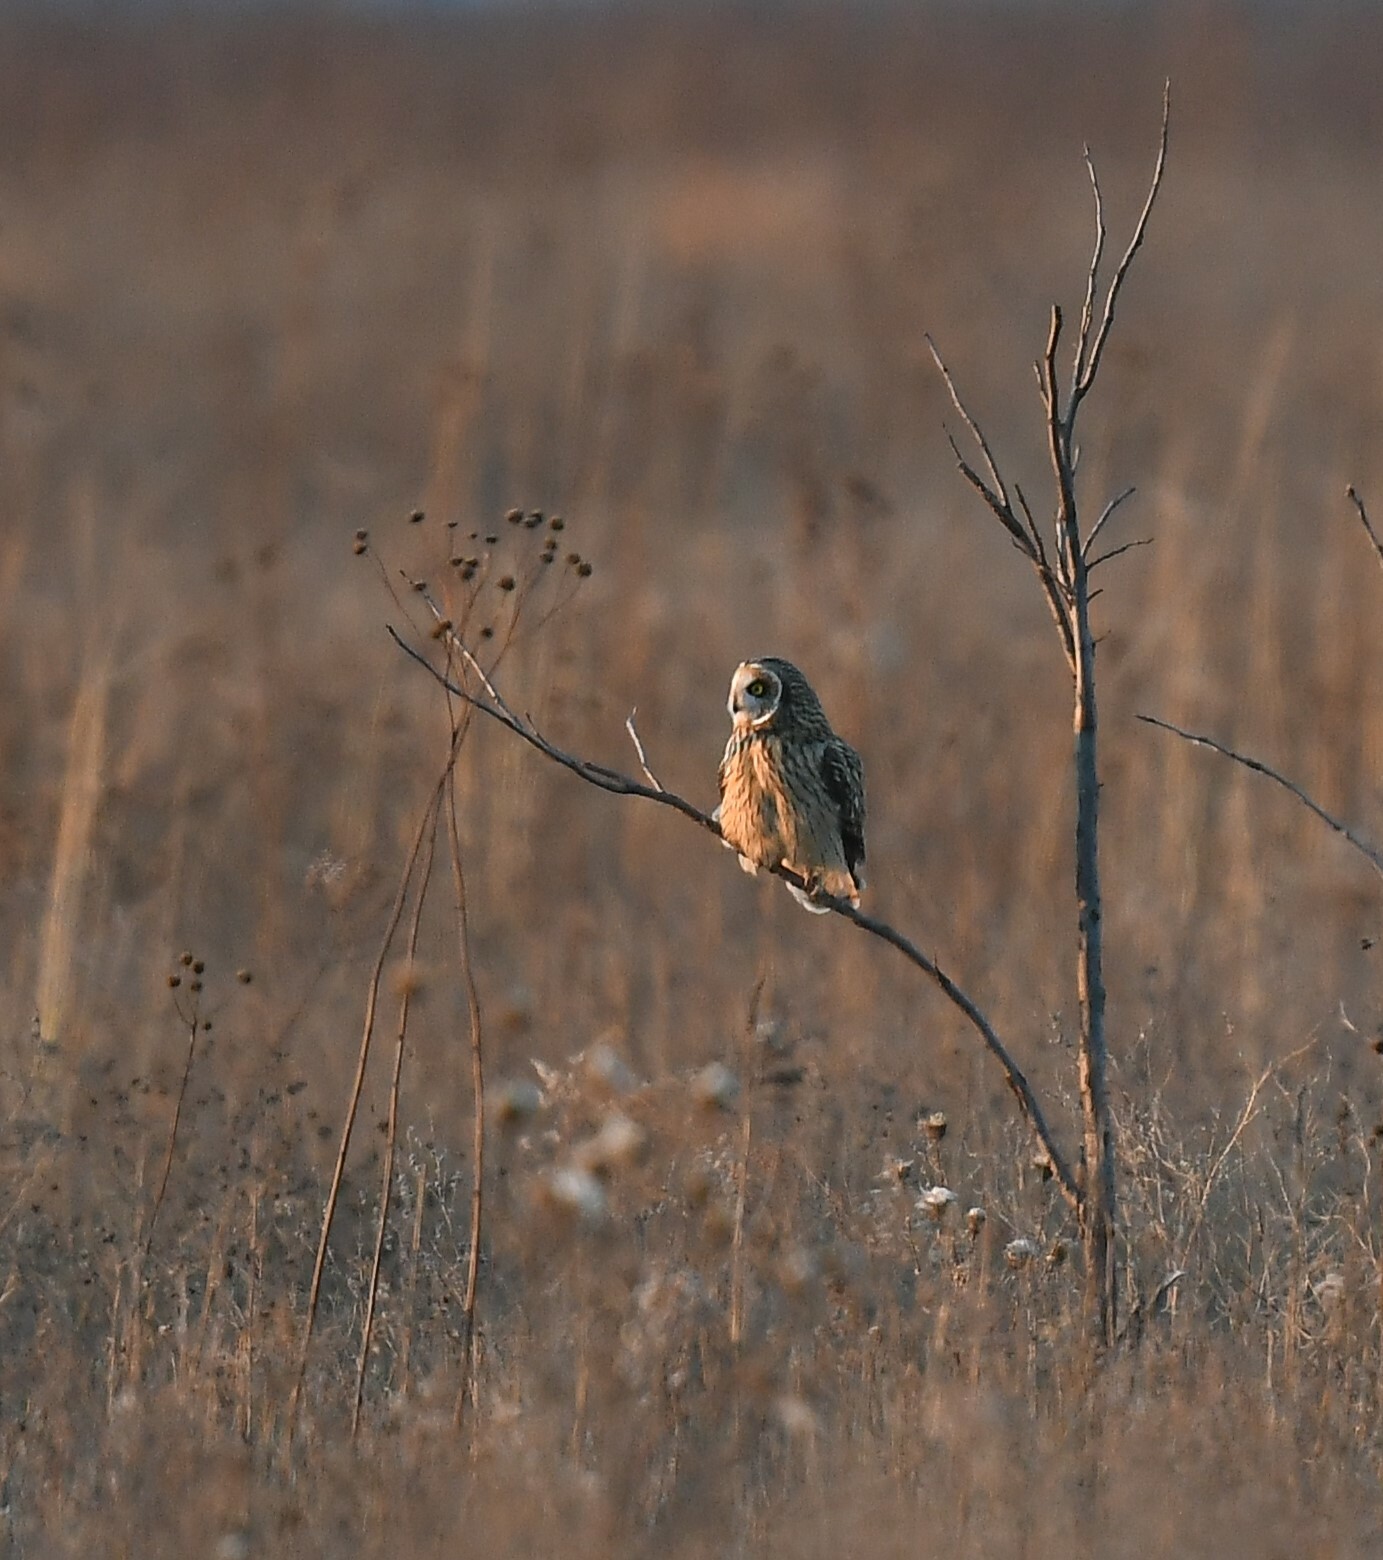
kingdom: Animalia
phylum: Chordata
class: Aves
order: Strigiformes
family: Strigidae
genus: Asio
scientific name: Asio flammeus
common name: Short-eared owl
